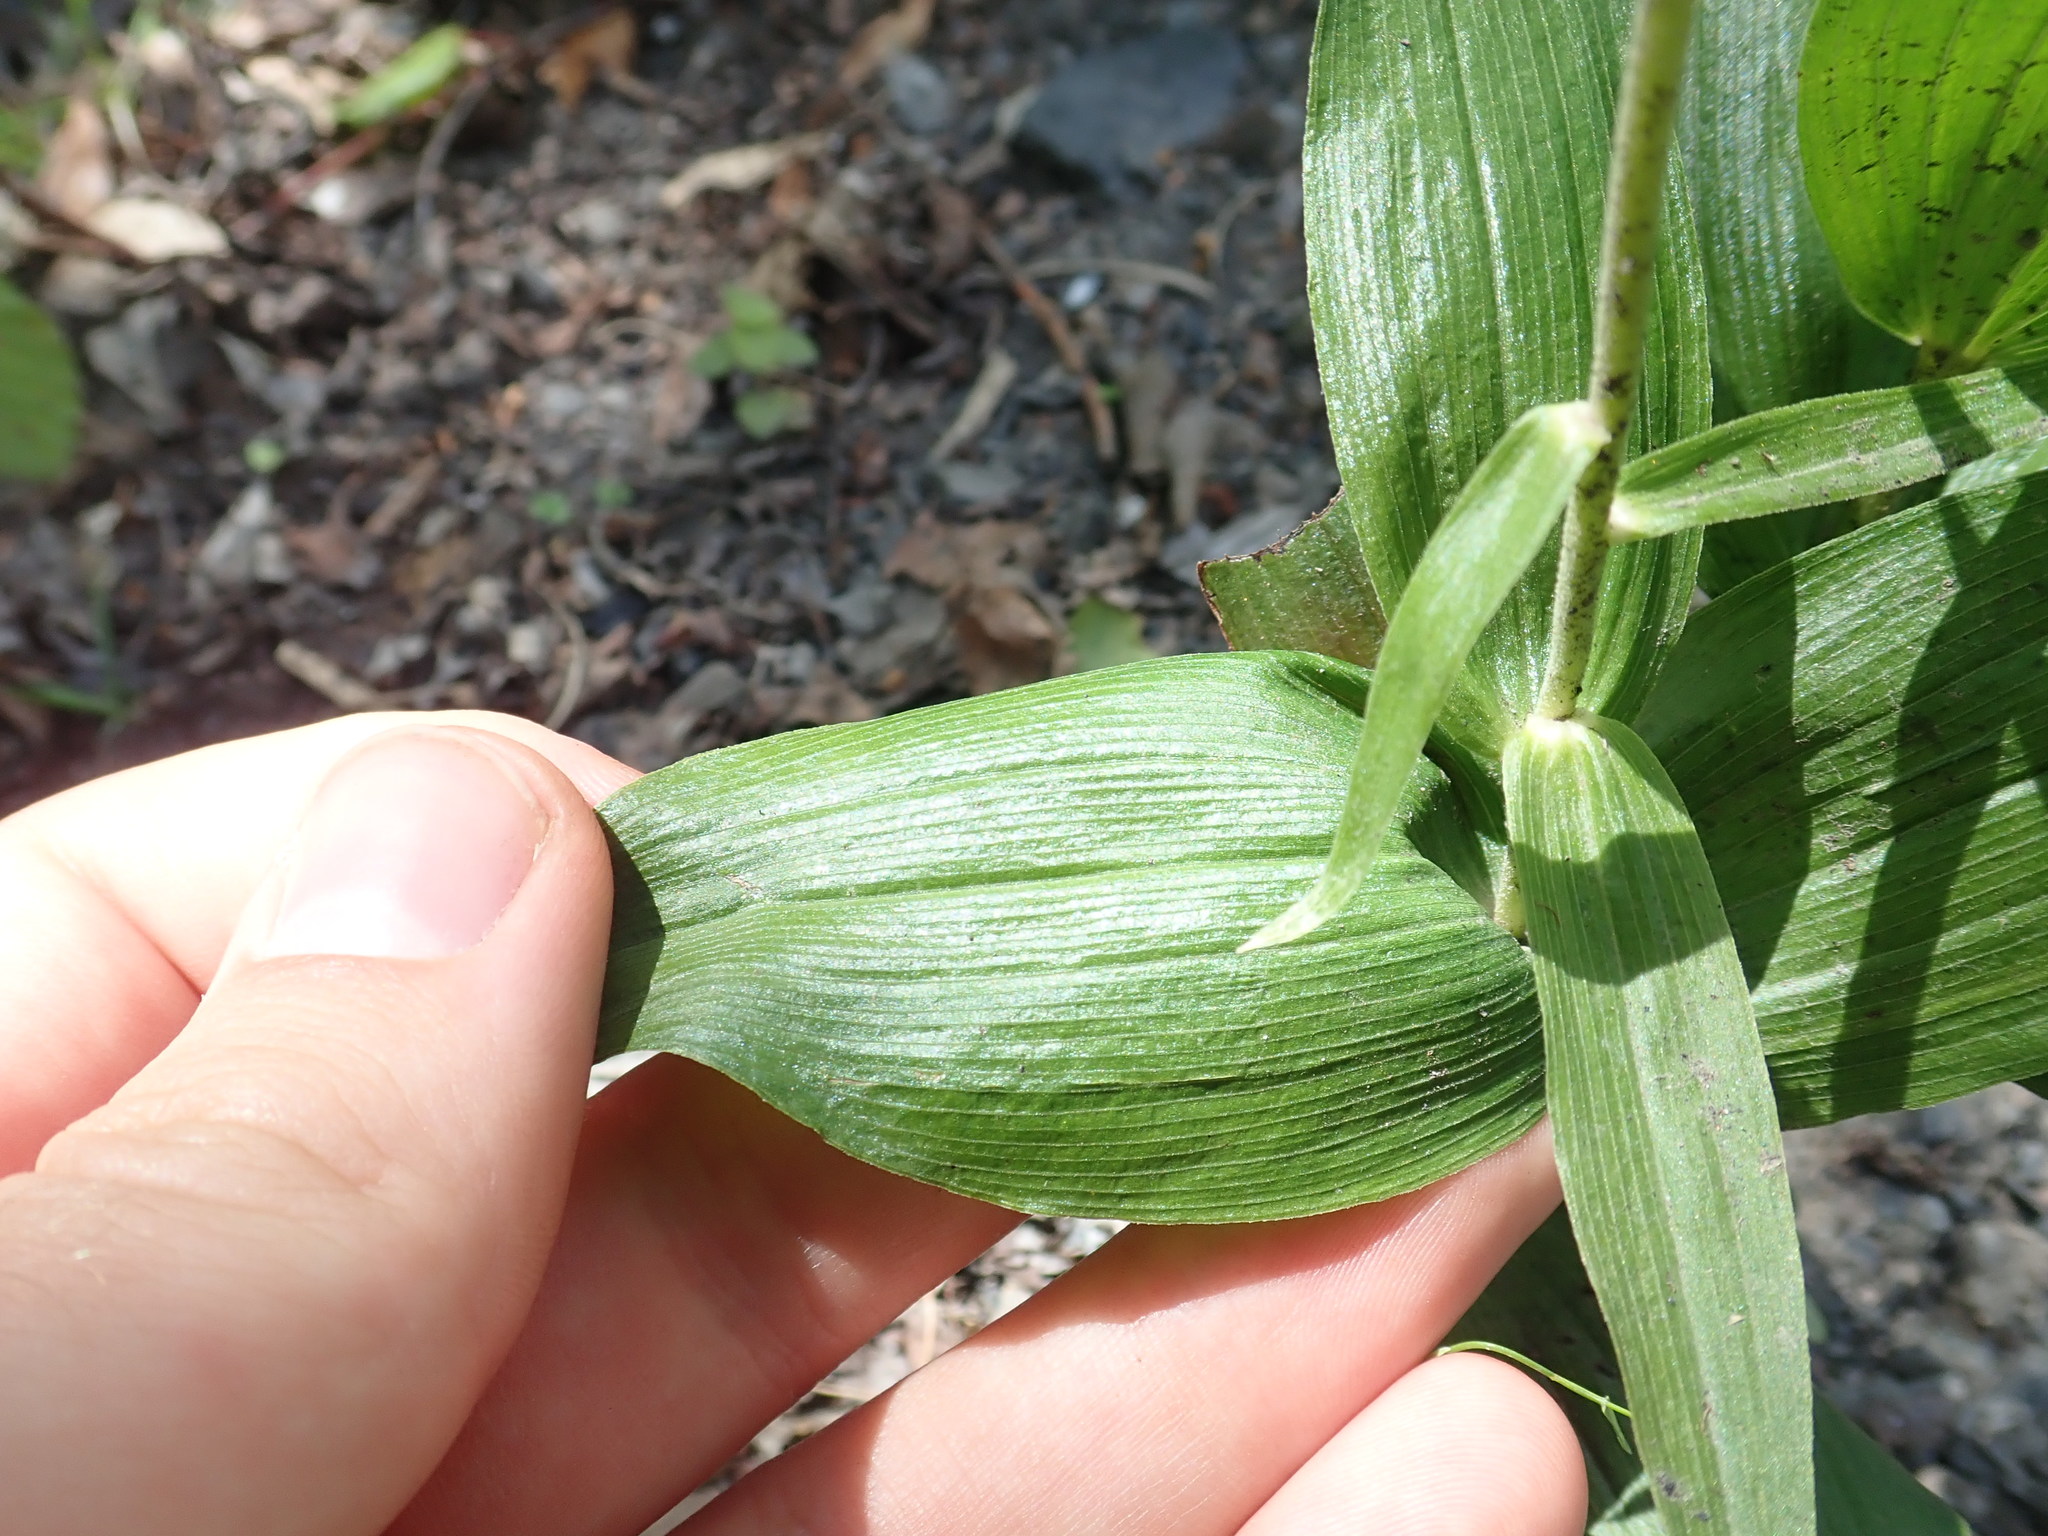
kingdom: Plantae
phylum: Tracheophyta
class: Liliopsida
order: Asparagales
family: Orchidaceae
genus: Epipactis
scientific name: Epipactis helleborine
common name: Broad-leaved helleborine
